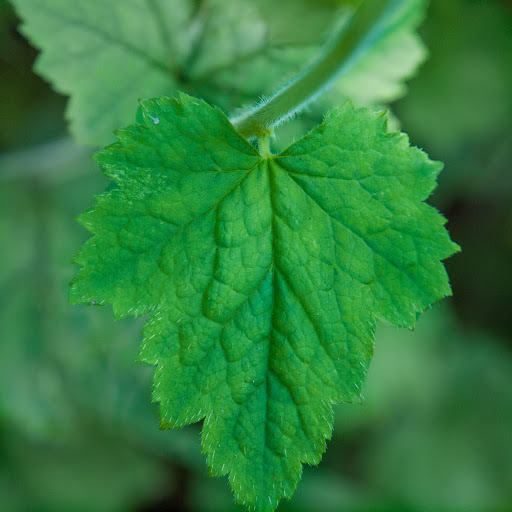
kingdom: Plantae
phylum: Tracheophyta
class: Magnoliopsida
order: Saxifragales
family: Saxifragaceae
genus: Tellima
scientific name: Tellima grandiflora
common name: Fringecups
